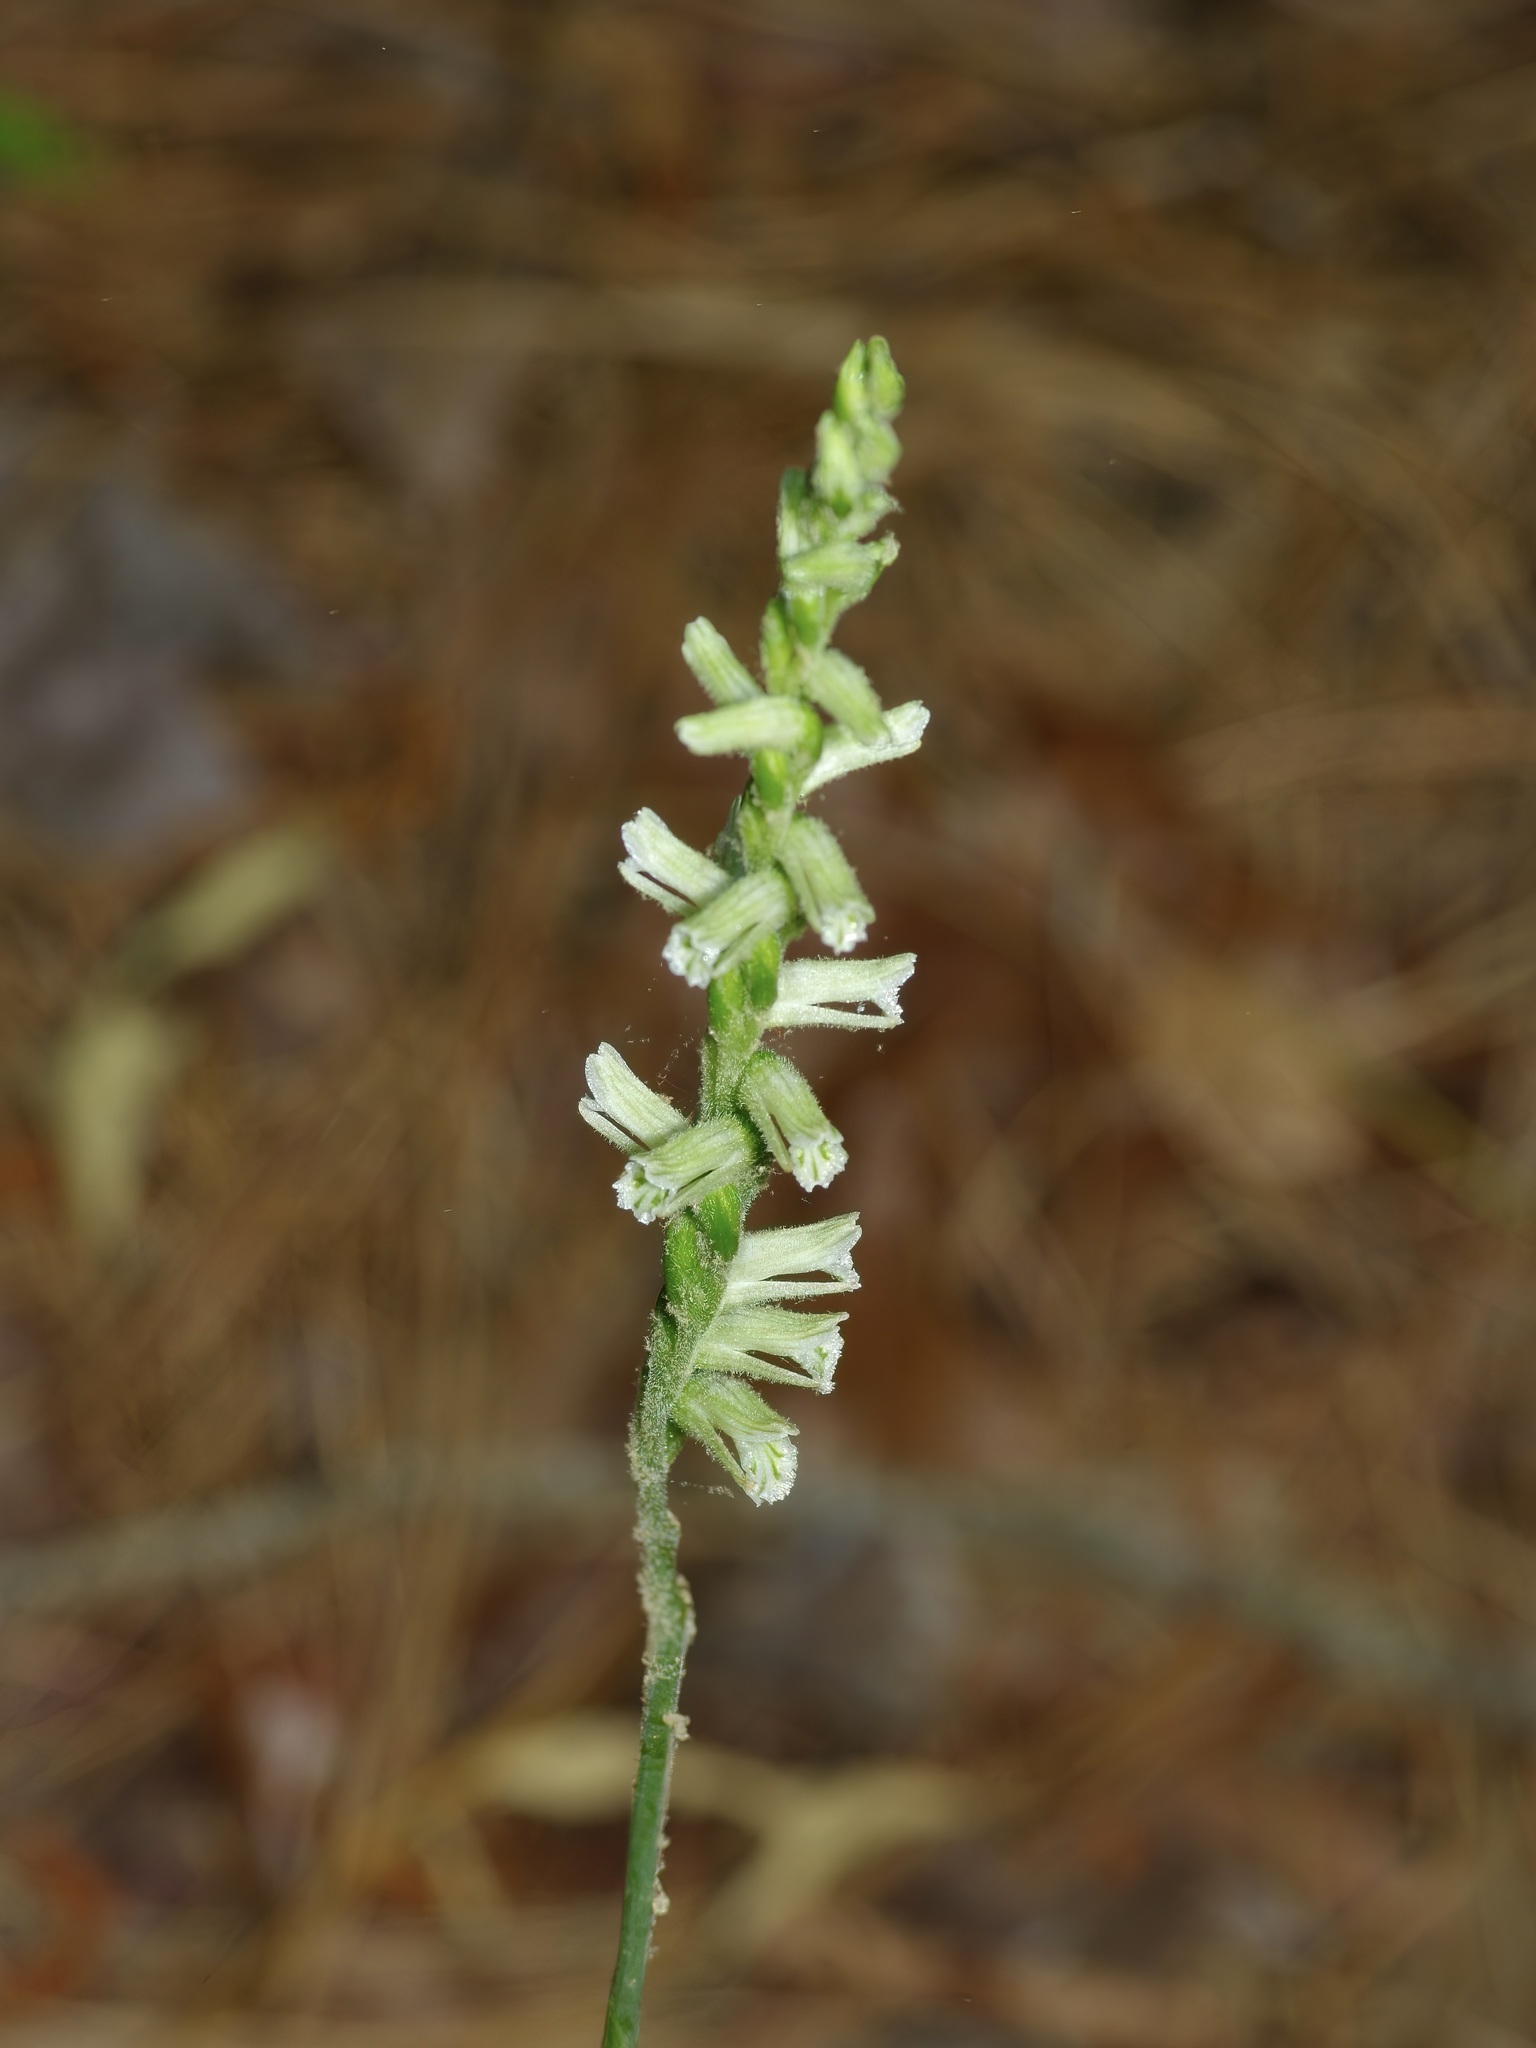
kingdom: Plantae
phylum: Tracheophyta
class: Liliopsida
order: Asparagales
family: Orchidaceae
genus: Spiranthes
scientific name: Spiranthes praecox
